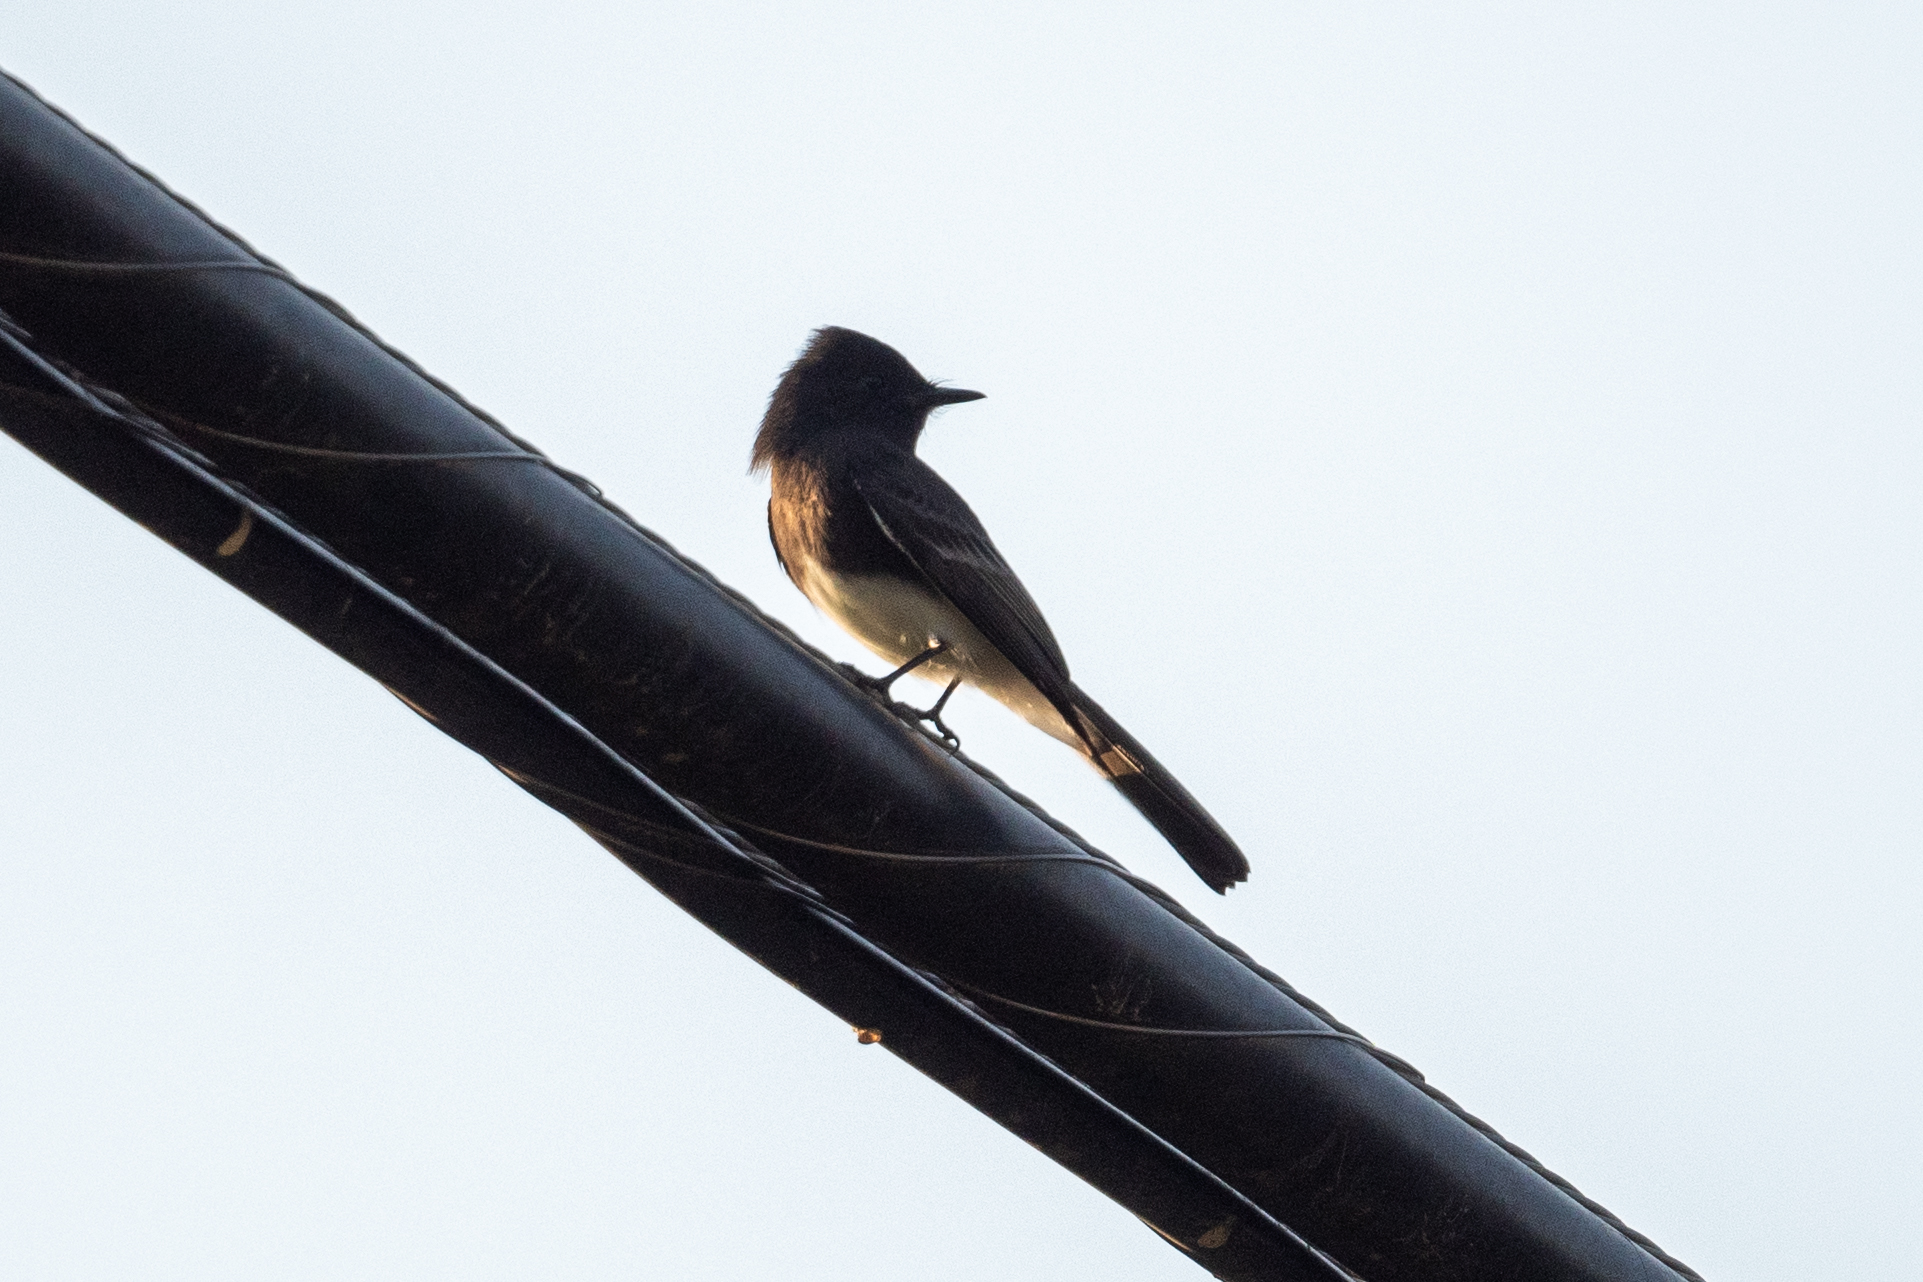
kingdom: Animalia
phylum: Chordata
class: Aves
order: Passeriformes
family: Tyrannidae
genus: Sayornis
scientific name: Sayornis nigricans
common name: Black phoebe
